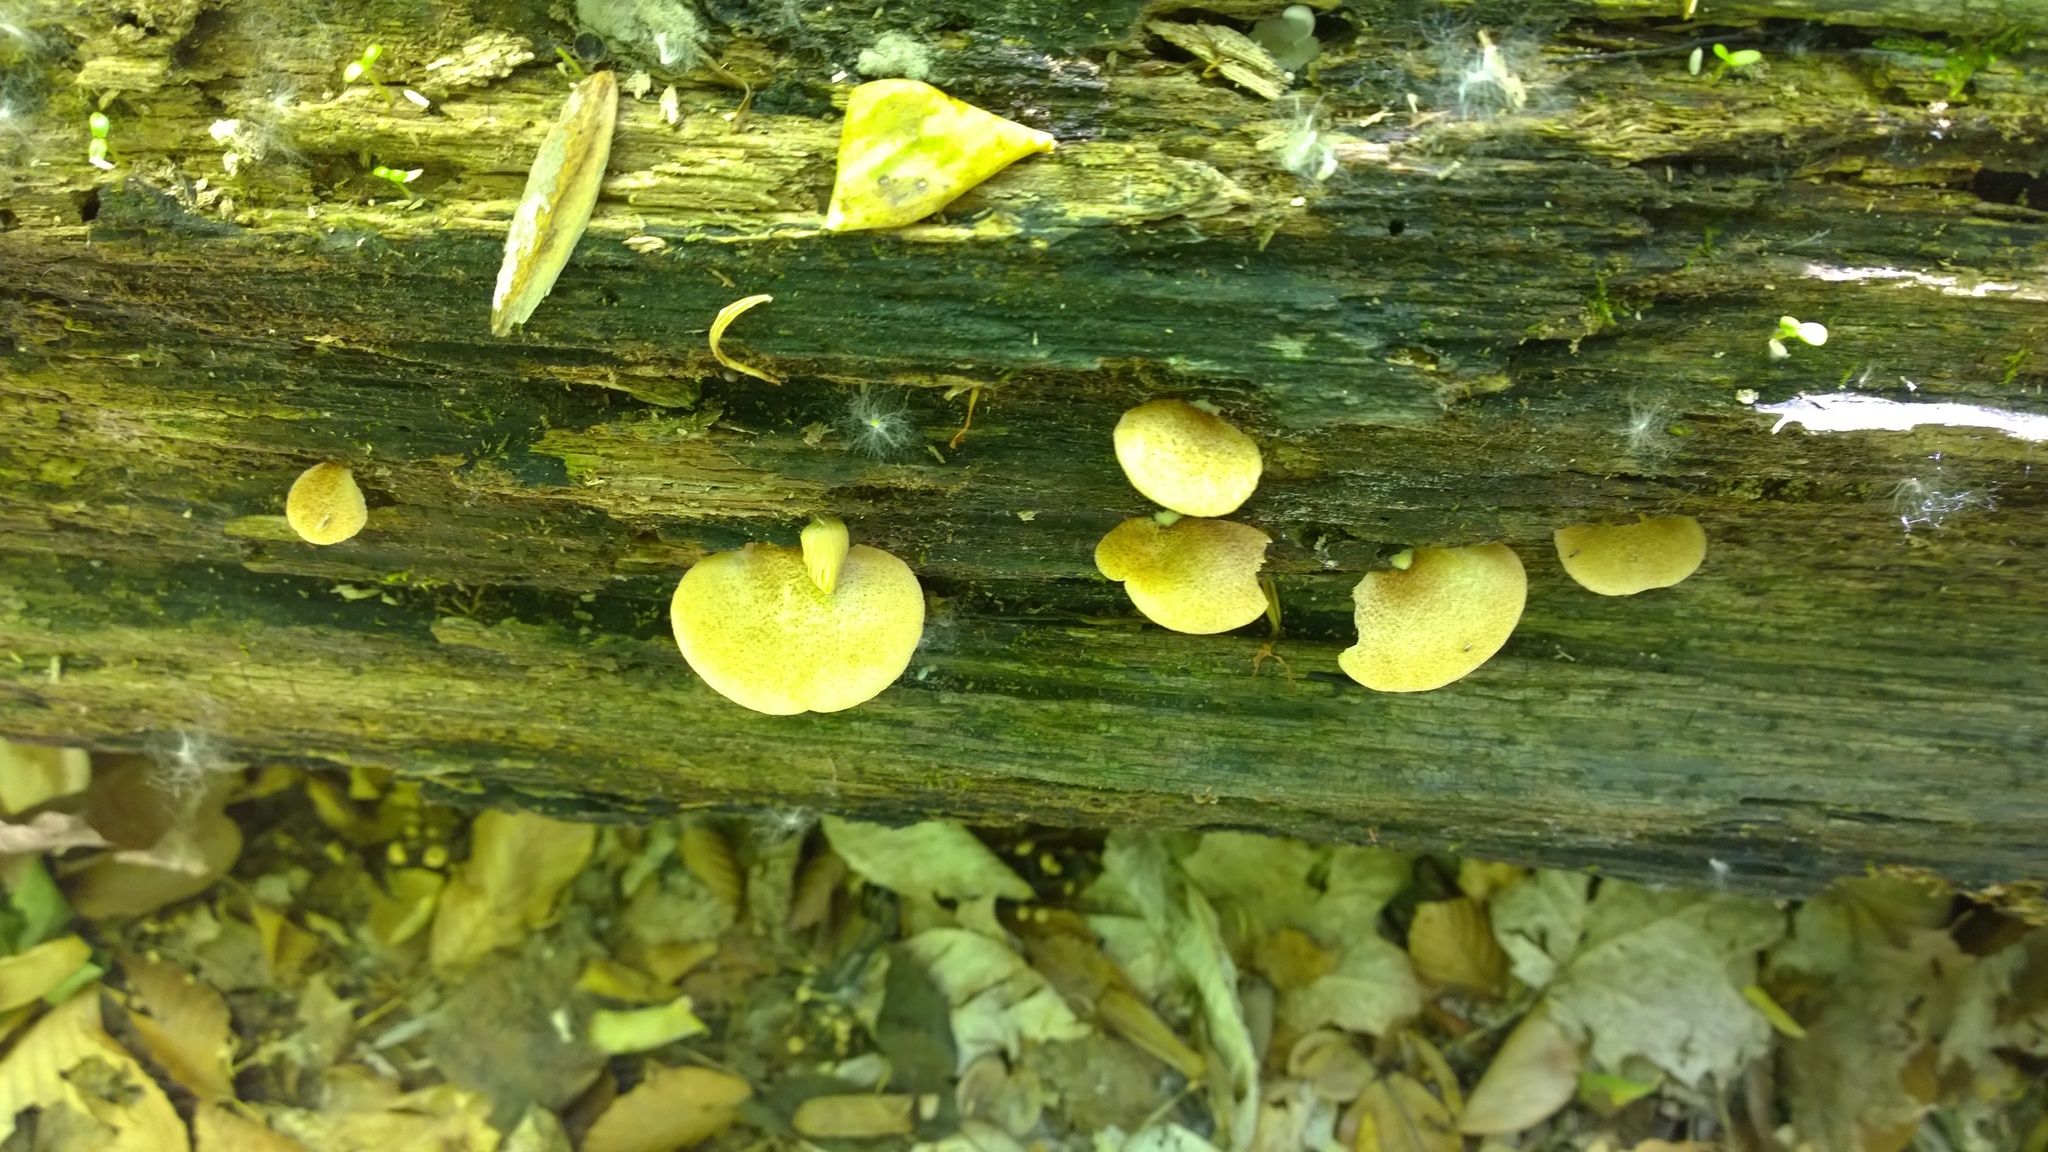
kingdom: Fungi
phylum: Basidiomycota
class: Agaricomycetes
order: Agaricales
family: Crepidotaceae
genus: Crepidotus
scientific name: Crepidotus crocophyllus
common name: Saffron oysterling
